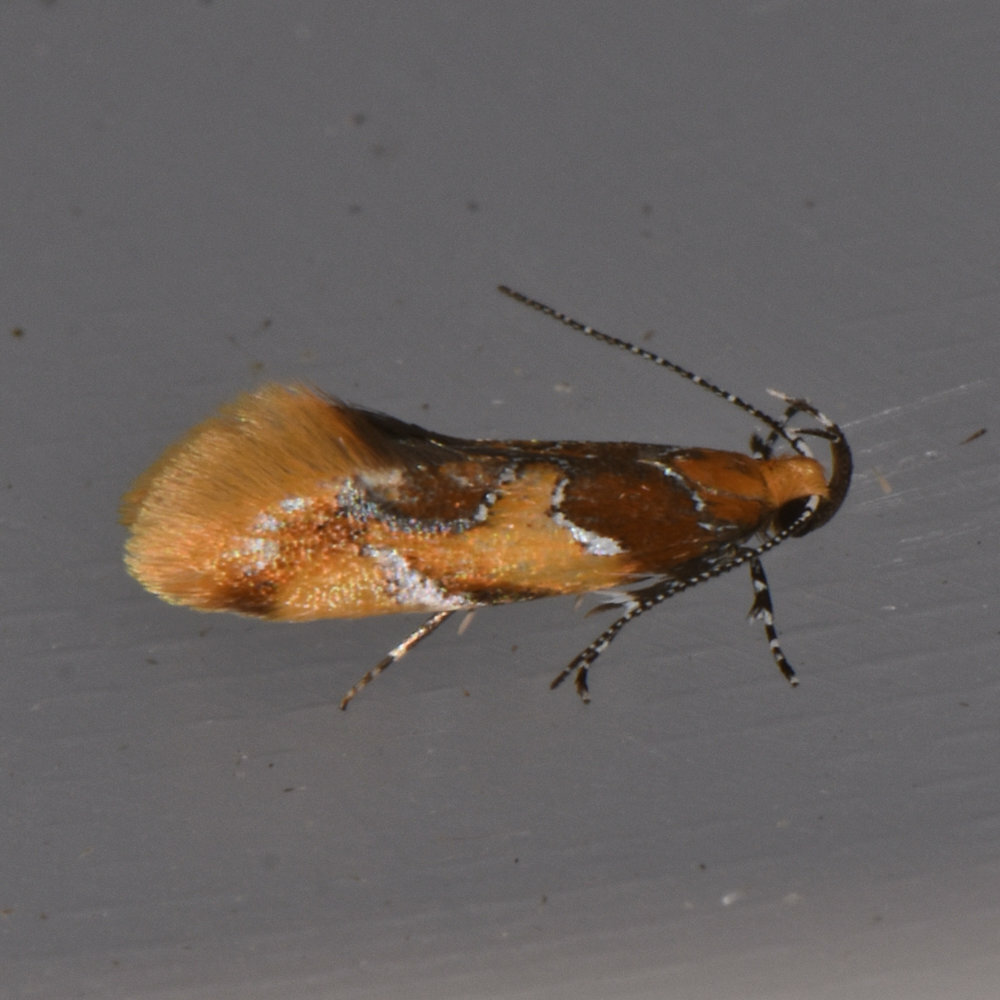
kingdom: Animalia
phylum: Arthropoda
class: Insecta
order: Lepidoptera
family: Oecophoridae
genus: Callima
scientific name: Callima argenticinctella
